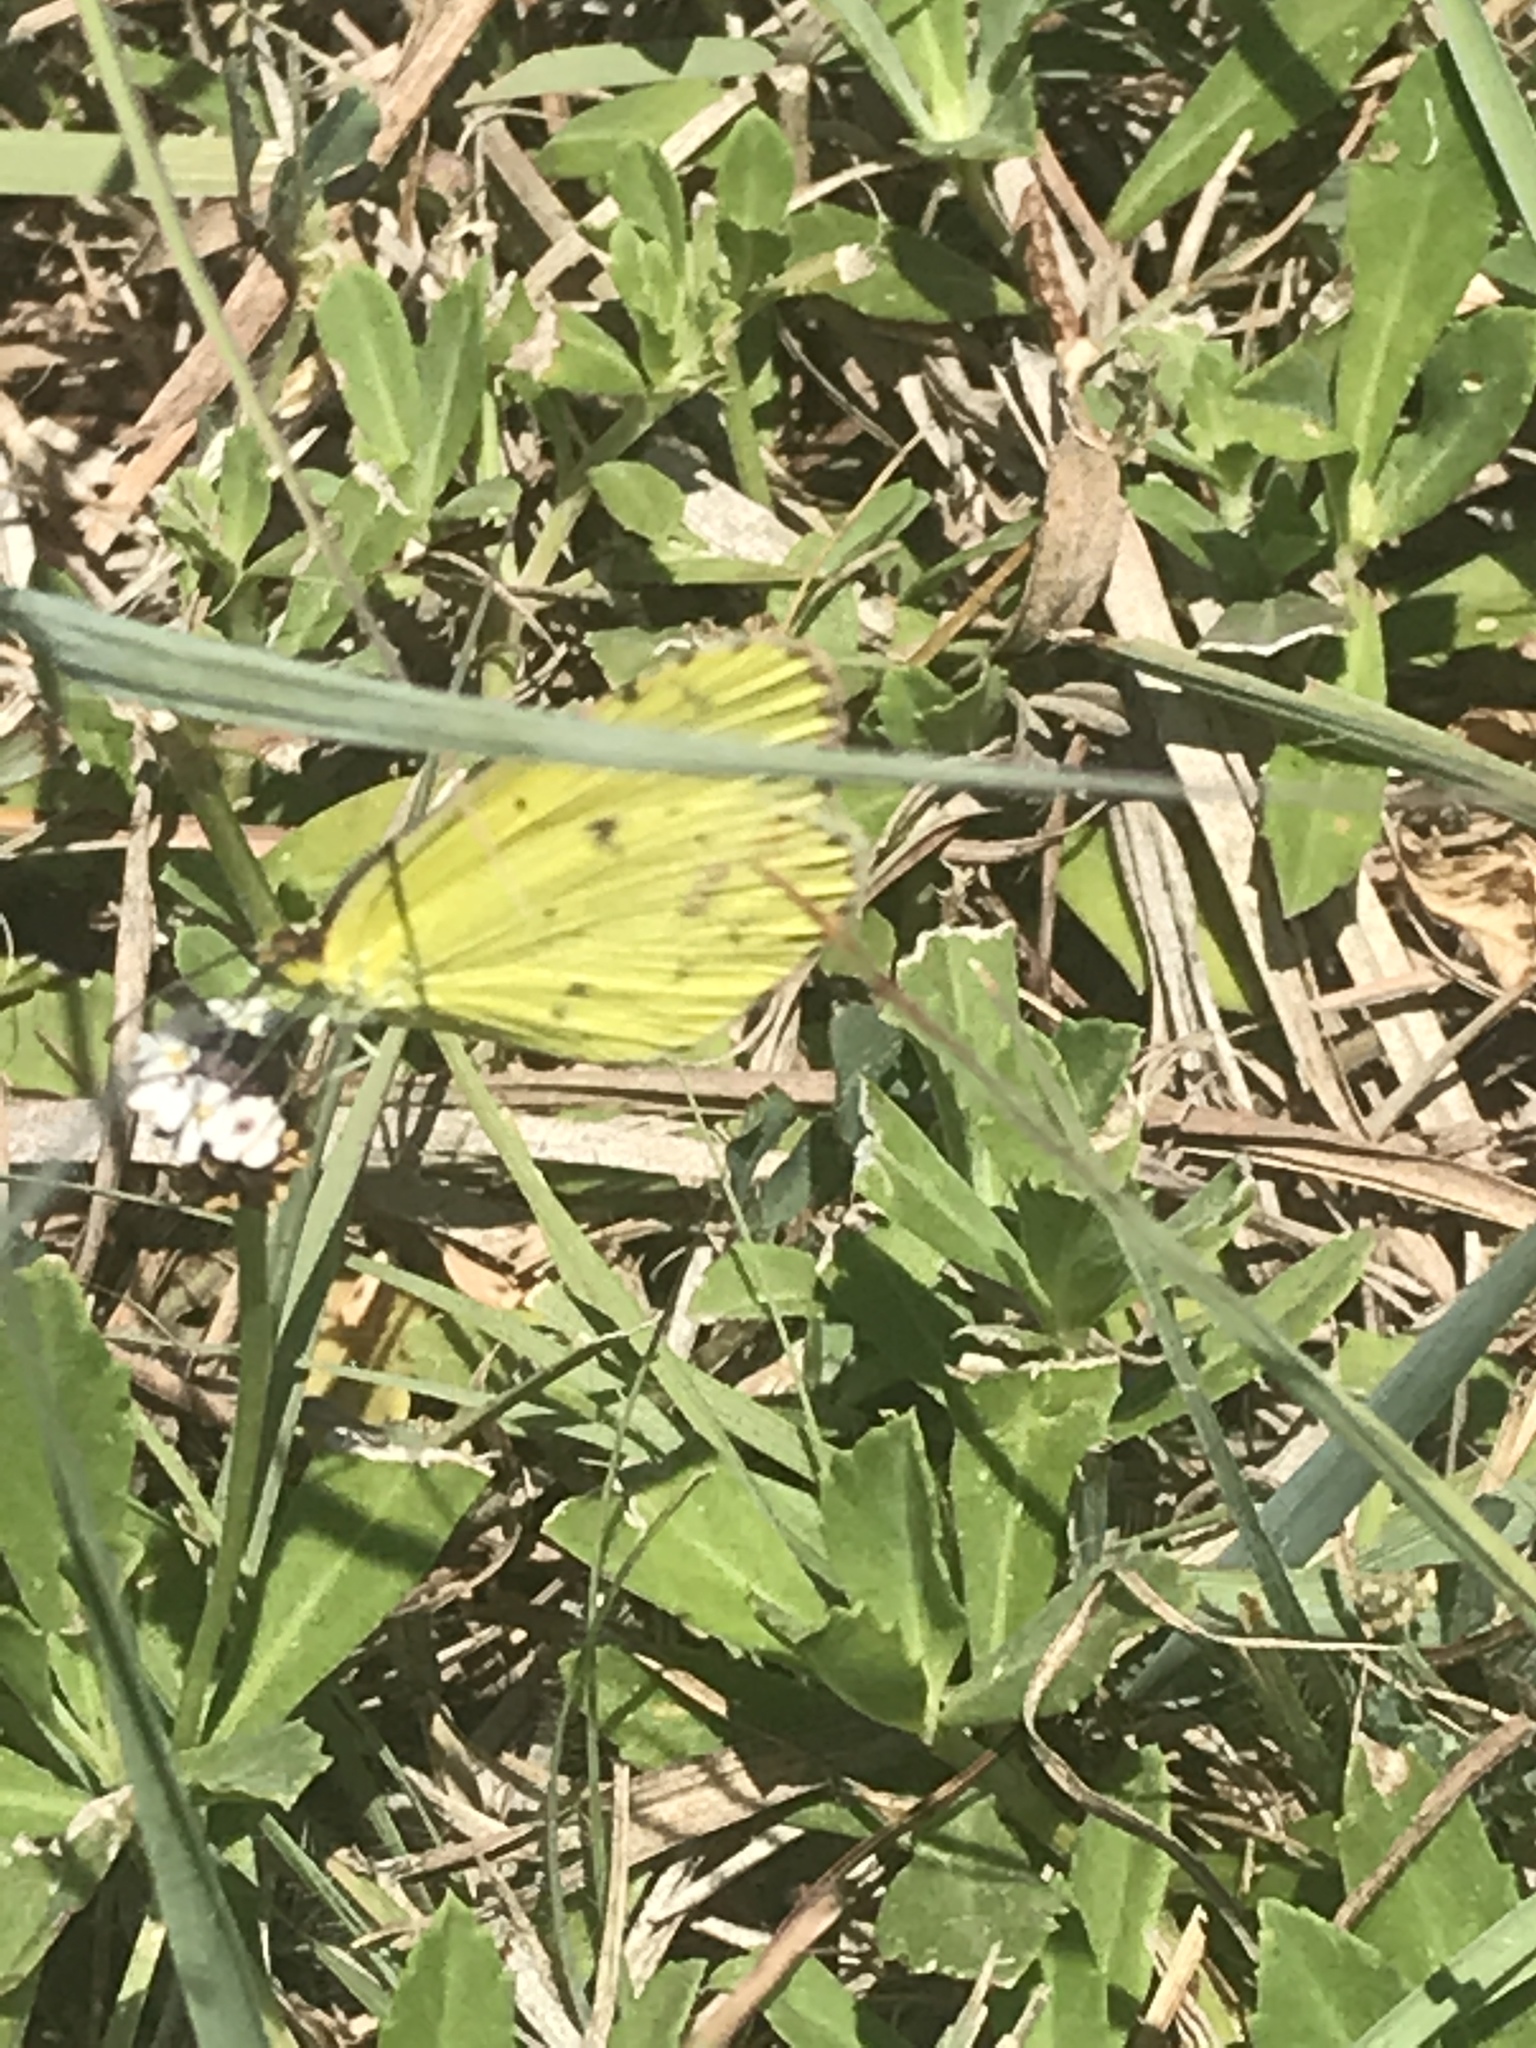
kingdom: Animalia
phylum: Arthropoda
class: Insecta
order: Lepidoptera
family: Pieridae
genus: Pyrisitia
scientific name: Pyrisitia lisa
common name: Little yellow
